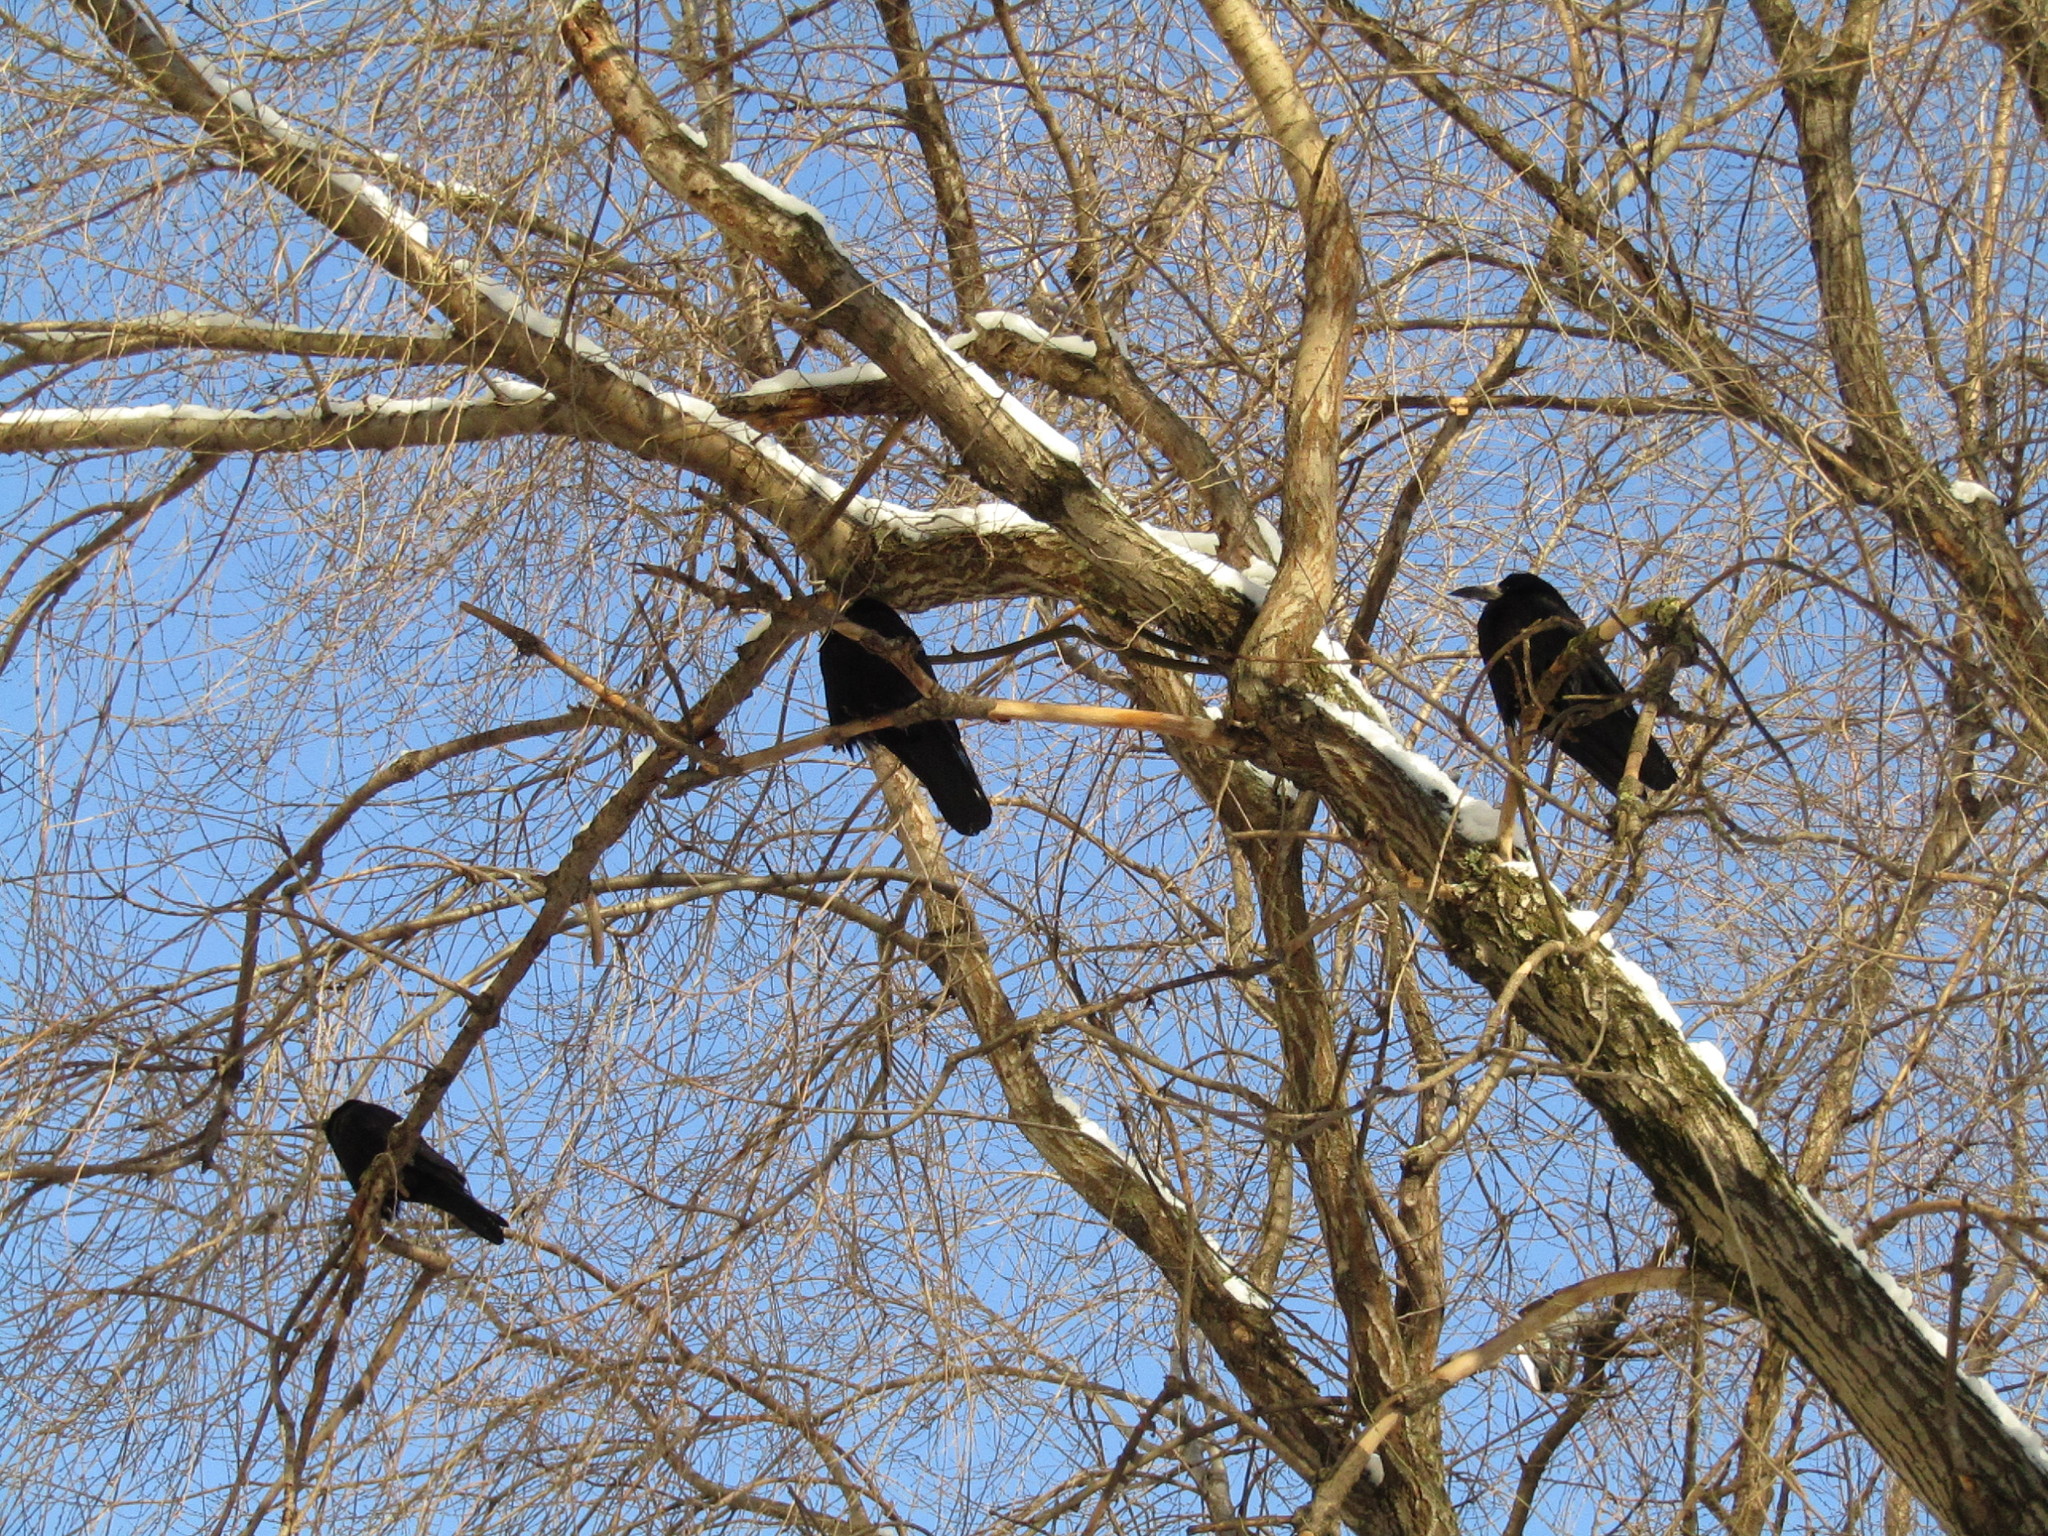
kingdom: Animalia
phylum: Chordata
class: Aves
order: Passeriformes
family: Corvidae
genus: Corvus
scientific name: Corvus frugilegus
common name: Rook
